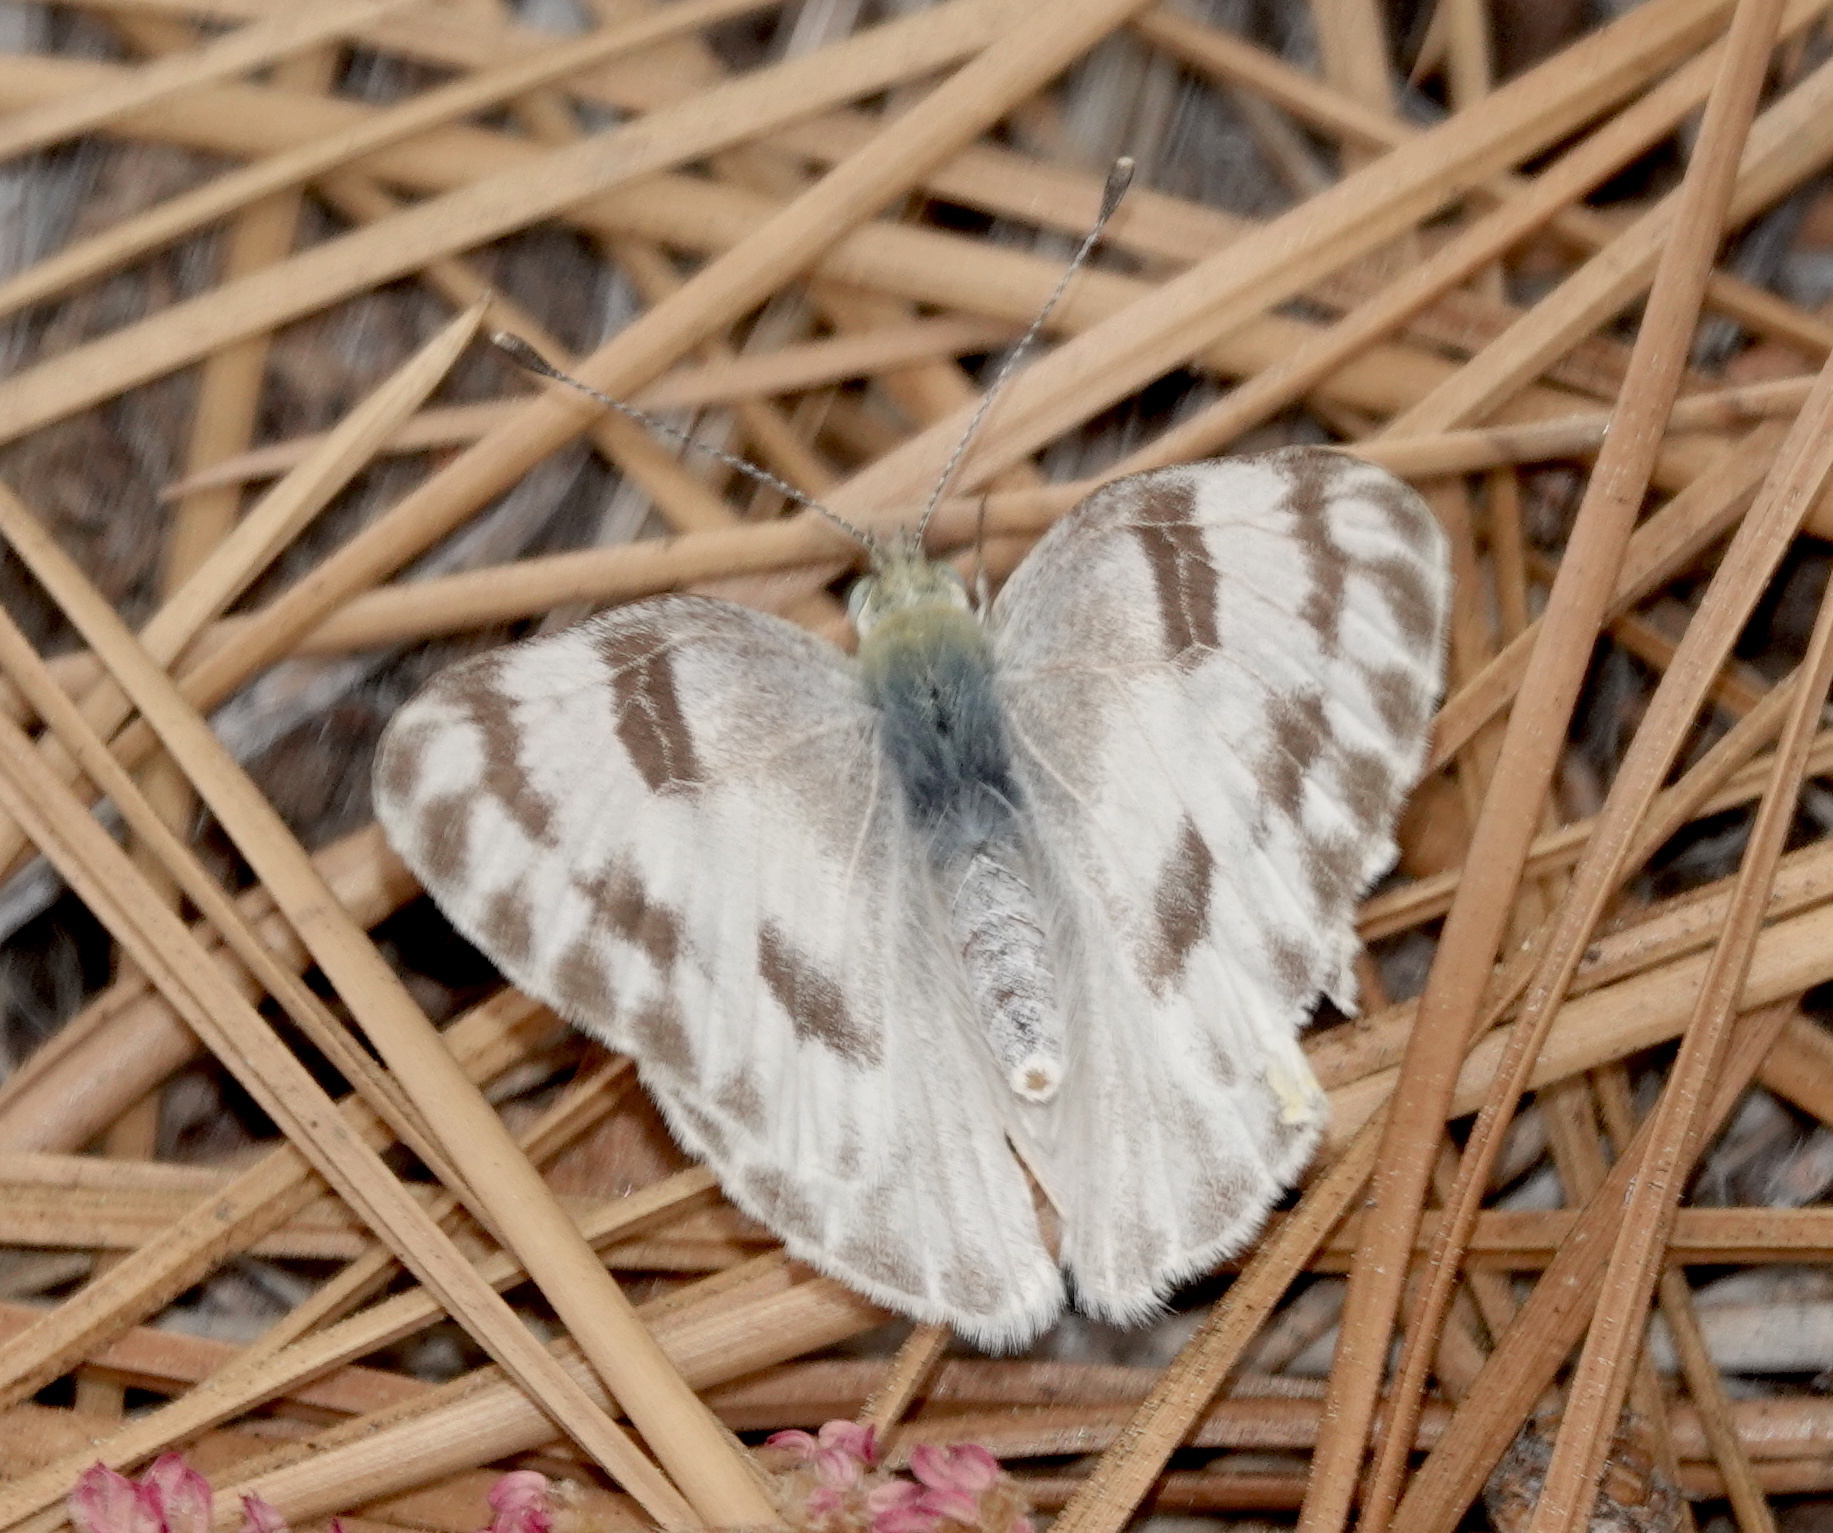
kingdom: Animalia
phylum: Arthropoda
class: Insecta
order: Lepidoptera
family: Pieridae
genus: Pontia
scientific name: Pontia protodice
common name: Checkered white
